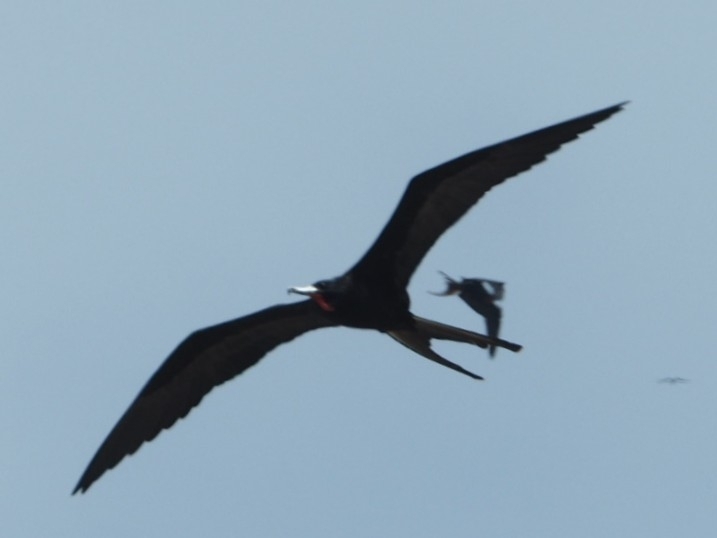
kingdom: Animalia
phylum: Chordata
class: Aves
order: Suliformes
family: Fregatidae
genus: Fregata
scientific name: Fregata magnificens
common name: Magnificent frigatebird
